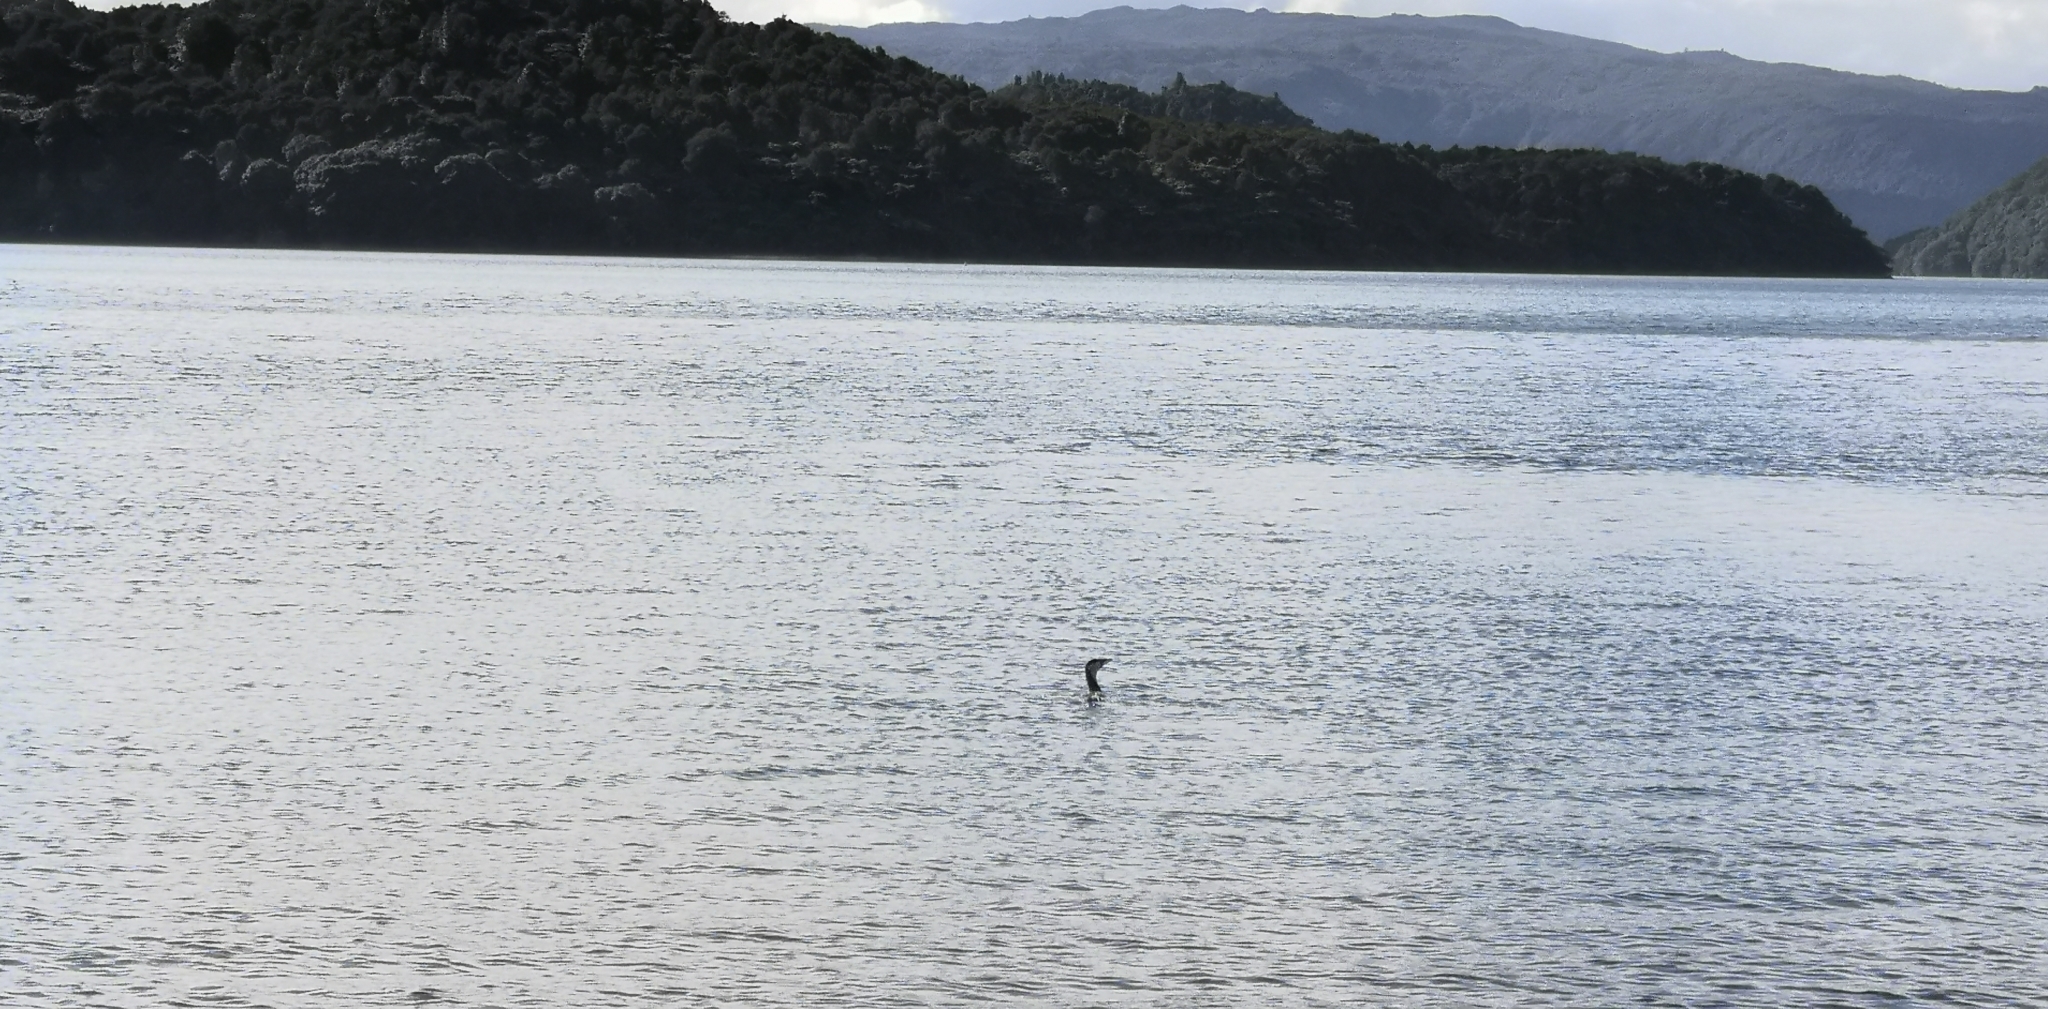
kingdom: Animalia
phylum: Chordata
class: Aves
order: Suliformes
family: Phalacrocoracidae
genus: Microcarbo
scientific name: Microcarbo melanoleucos
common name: Little pied cormorant
